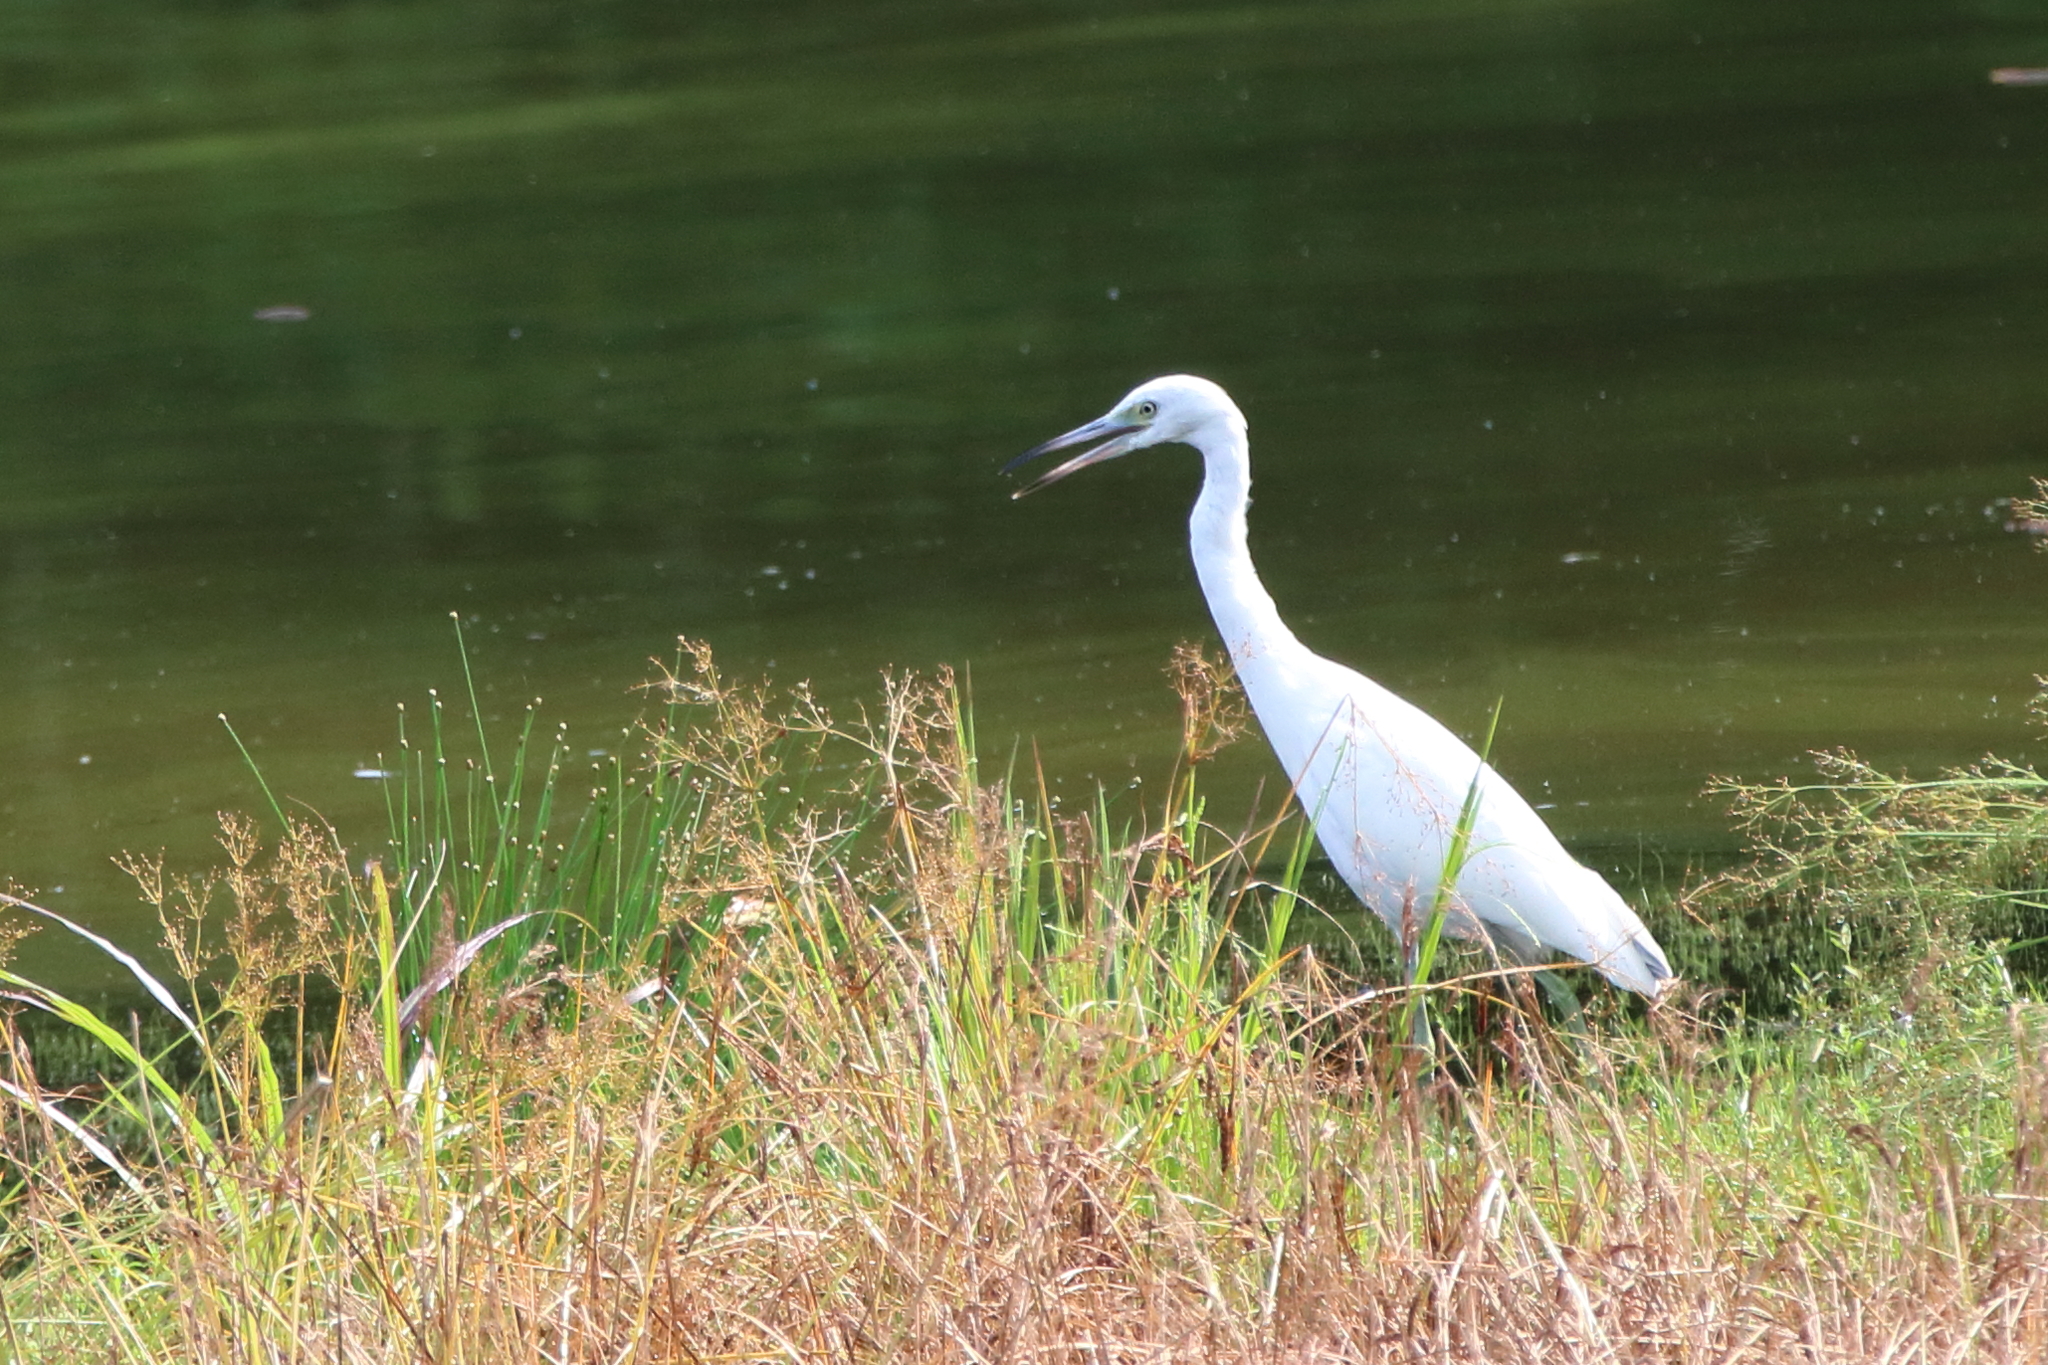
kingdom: Animalia
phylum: Chordata
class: Aves
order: Pelecaniformes
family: Ardeidae
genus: Egretta
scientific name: Egretta caerulea
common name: Little blue heron
